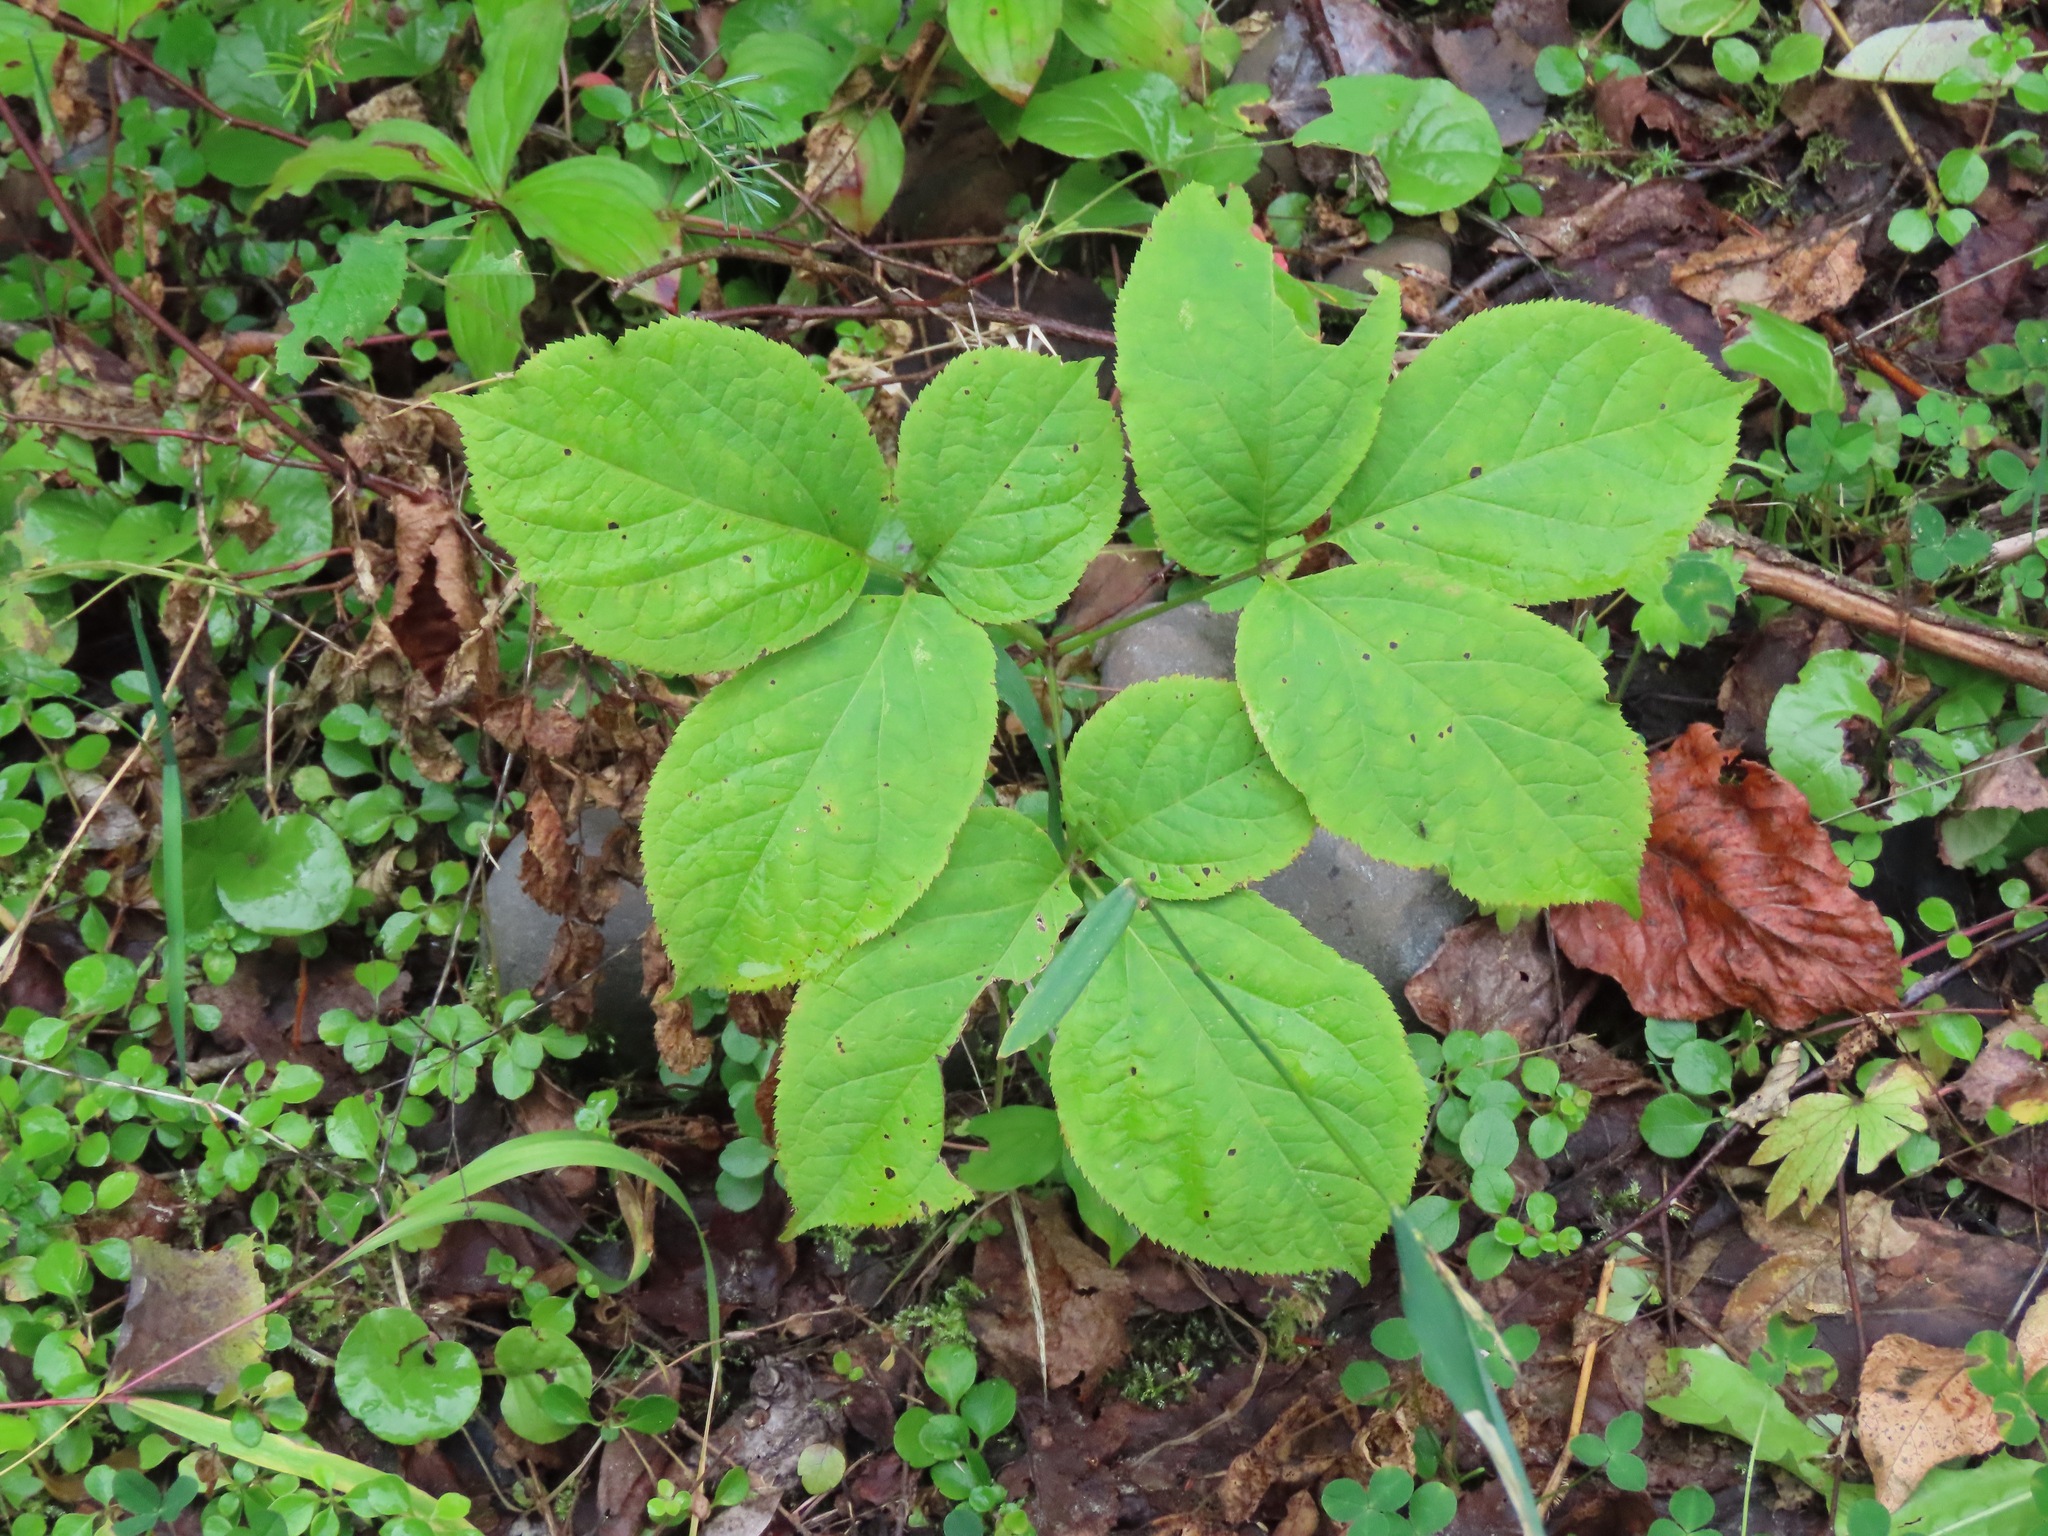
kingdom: Plantae
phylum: Tracheophyta
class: Magnoliopsida
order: Apiales
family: Araliaceae
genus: Aralia
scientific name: Aralia nudicaulis
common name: Wild sarsaparilla
